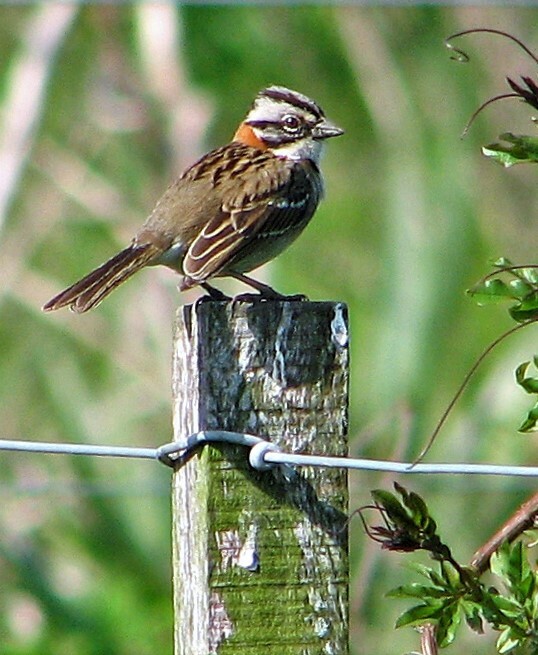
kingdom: Animalia
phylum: Chordata
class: Aves
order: Passeriformes
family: Passerellidae
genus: Zonotrichia
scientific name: Zonotrichia capensis
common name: Rufous-collared sparrow
